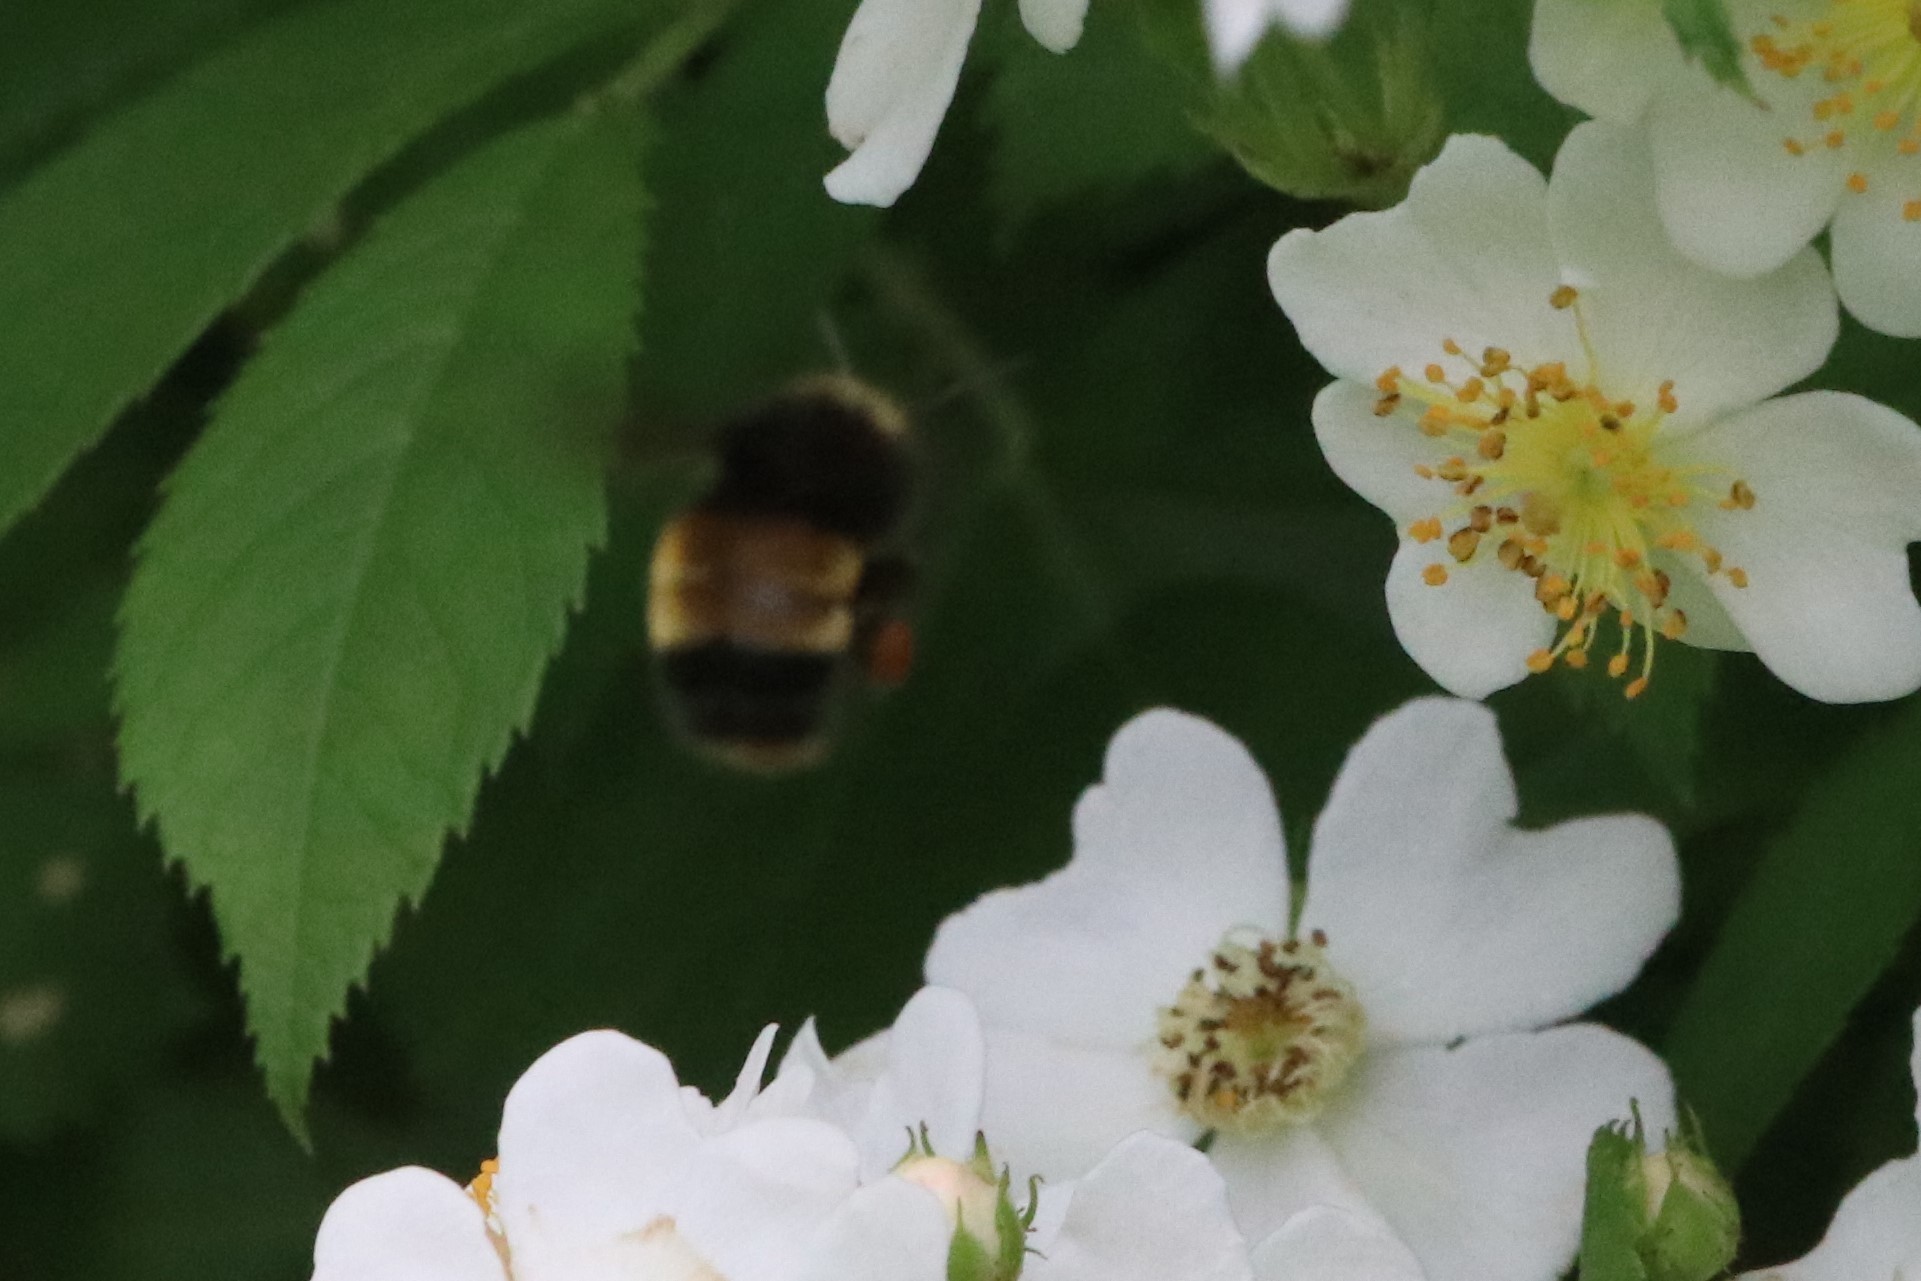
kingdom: Animalia
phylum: Arthropoda
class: Insecta
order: Hymenoptera
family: Apidae
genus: Bombus
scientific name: Bombus terricola
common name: Yellow-banded bumble bee
